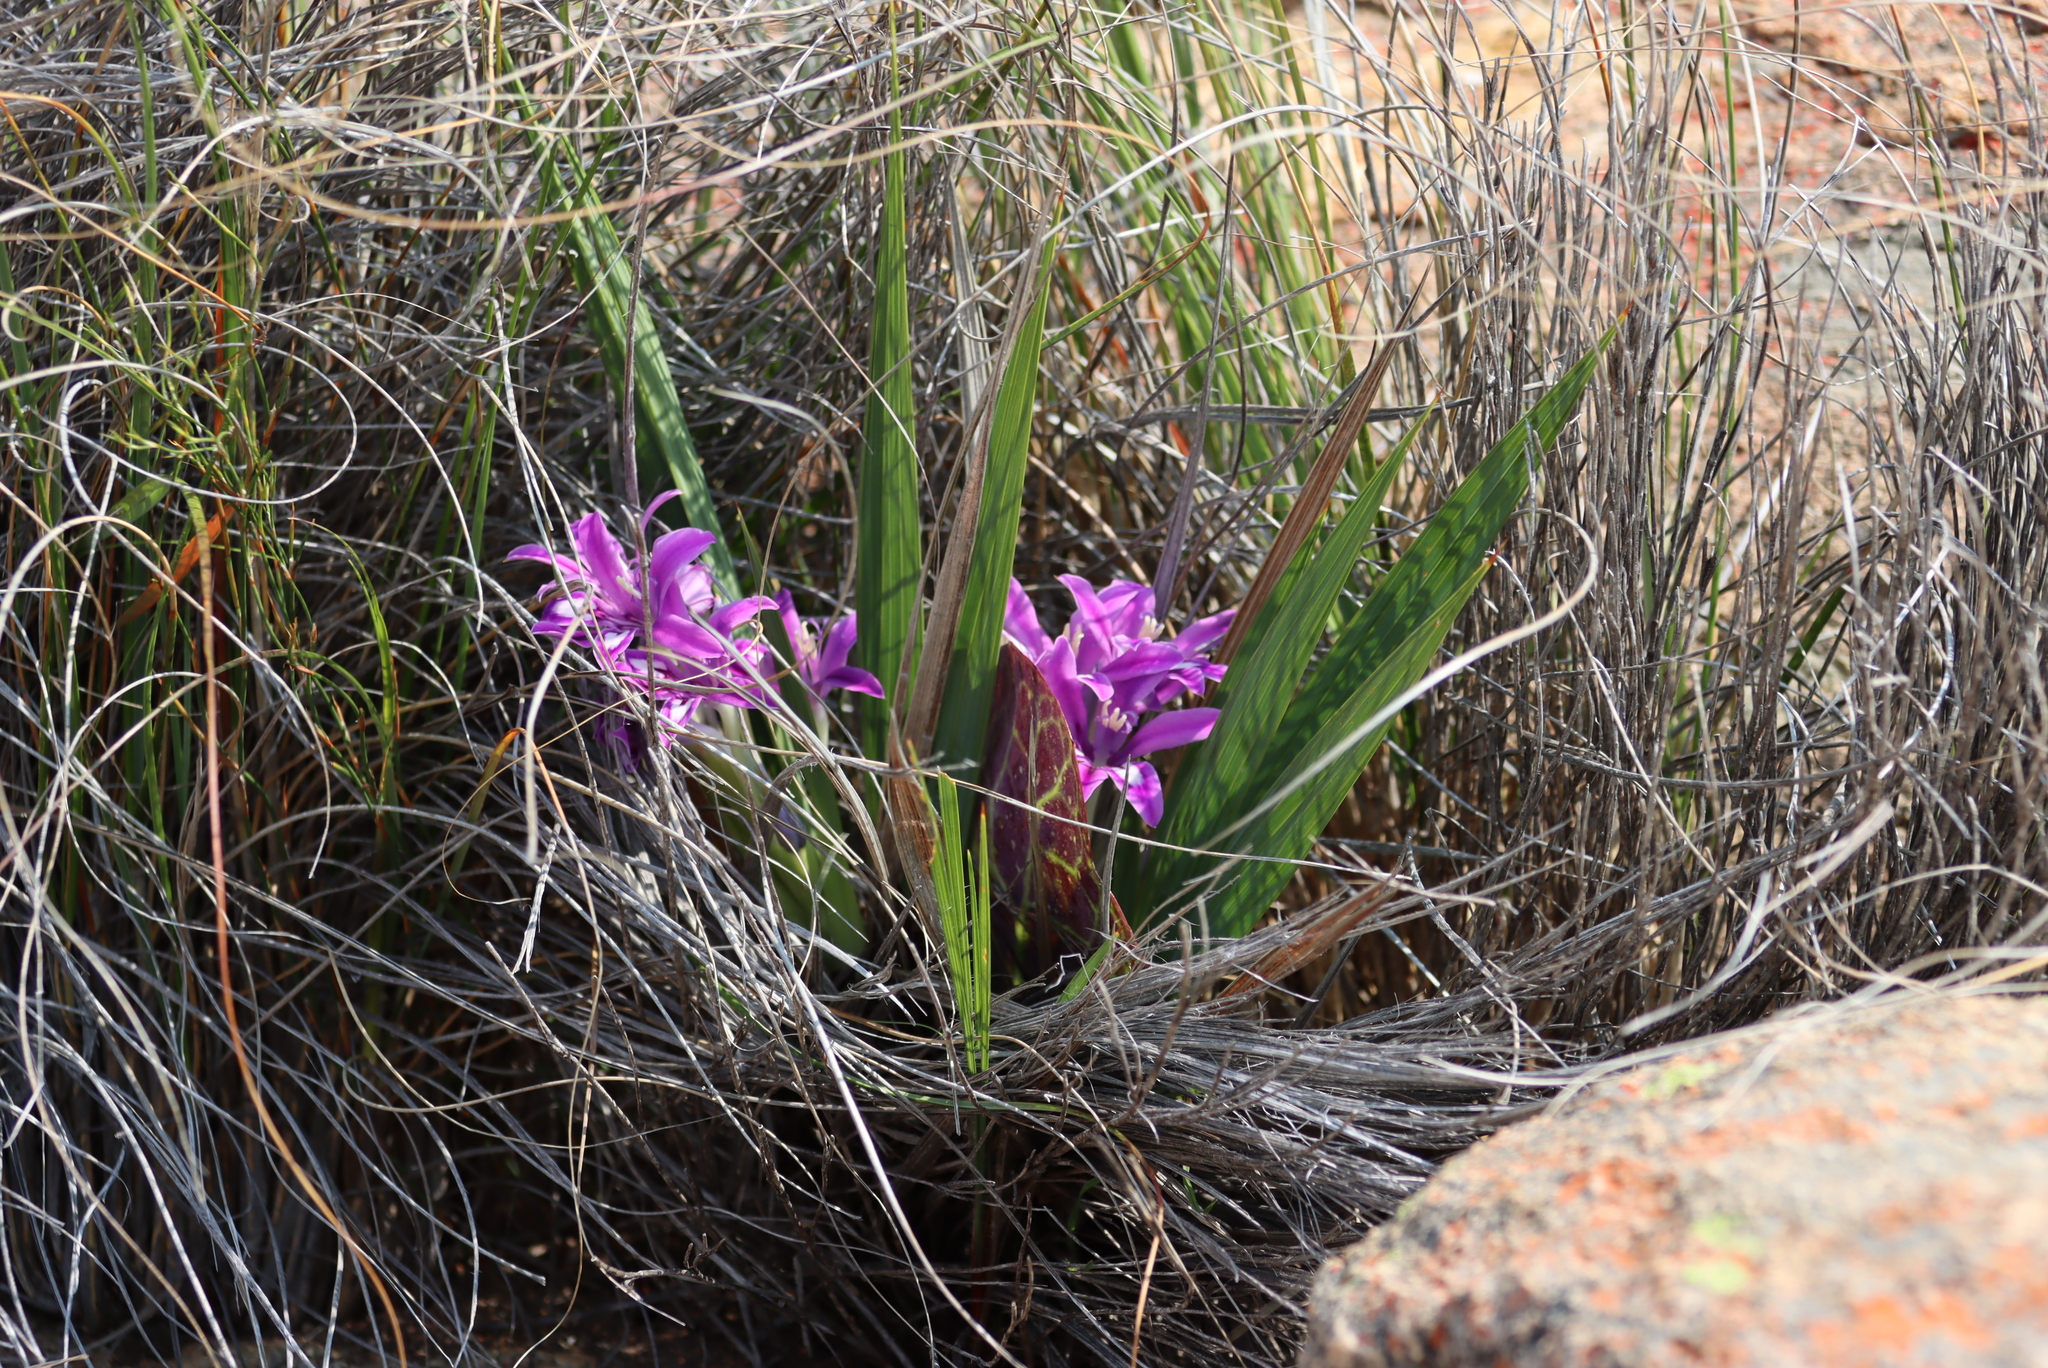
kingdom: Plantae
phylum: Tracheophyta
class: Liliopsida
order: Asparagales
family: Iridaceae
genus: Babiana
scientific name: Babiana dregei
